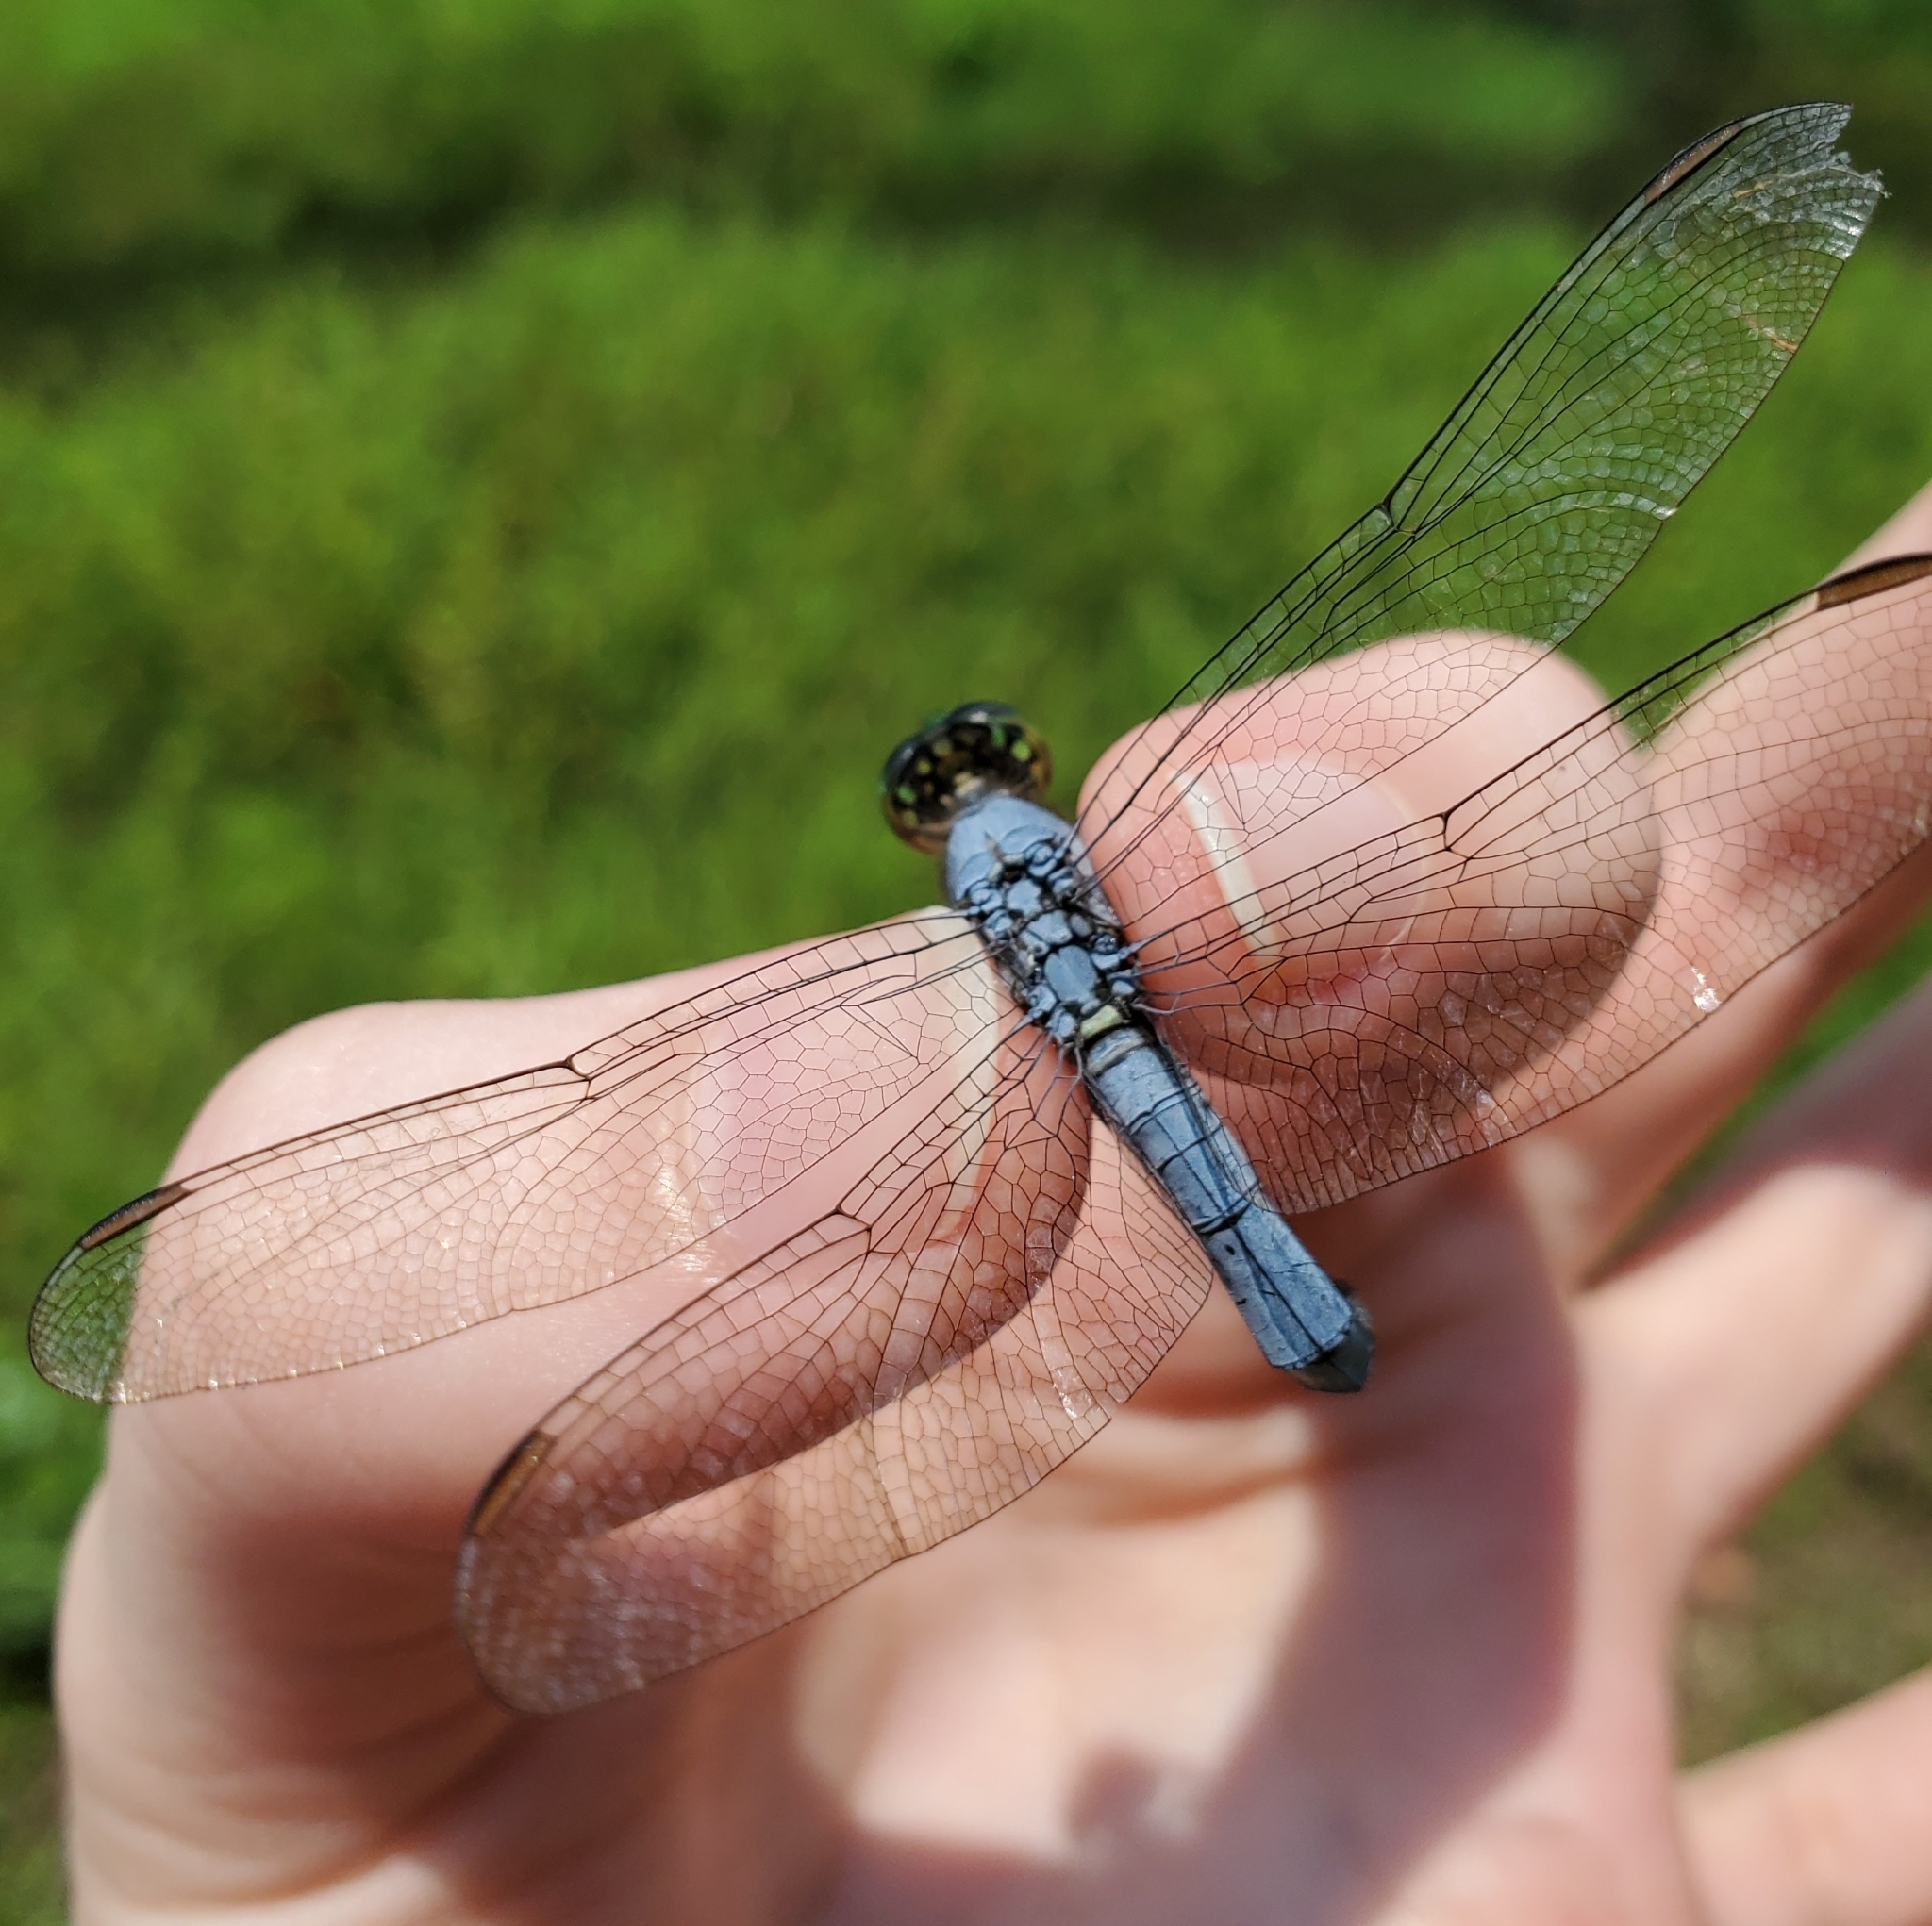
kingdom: Animalia
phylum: Arthropoda
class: Insecta
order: Odonata
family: Libellulidae
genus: Erythemis
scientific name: Erythemis simplicicollis
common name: Eastern pondhawk
